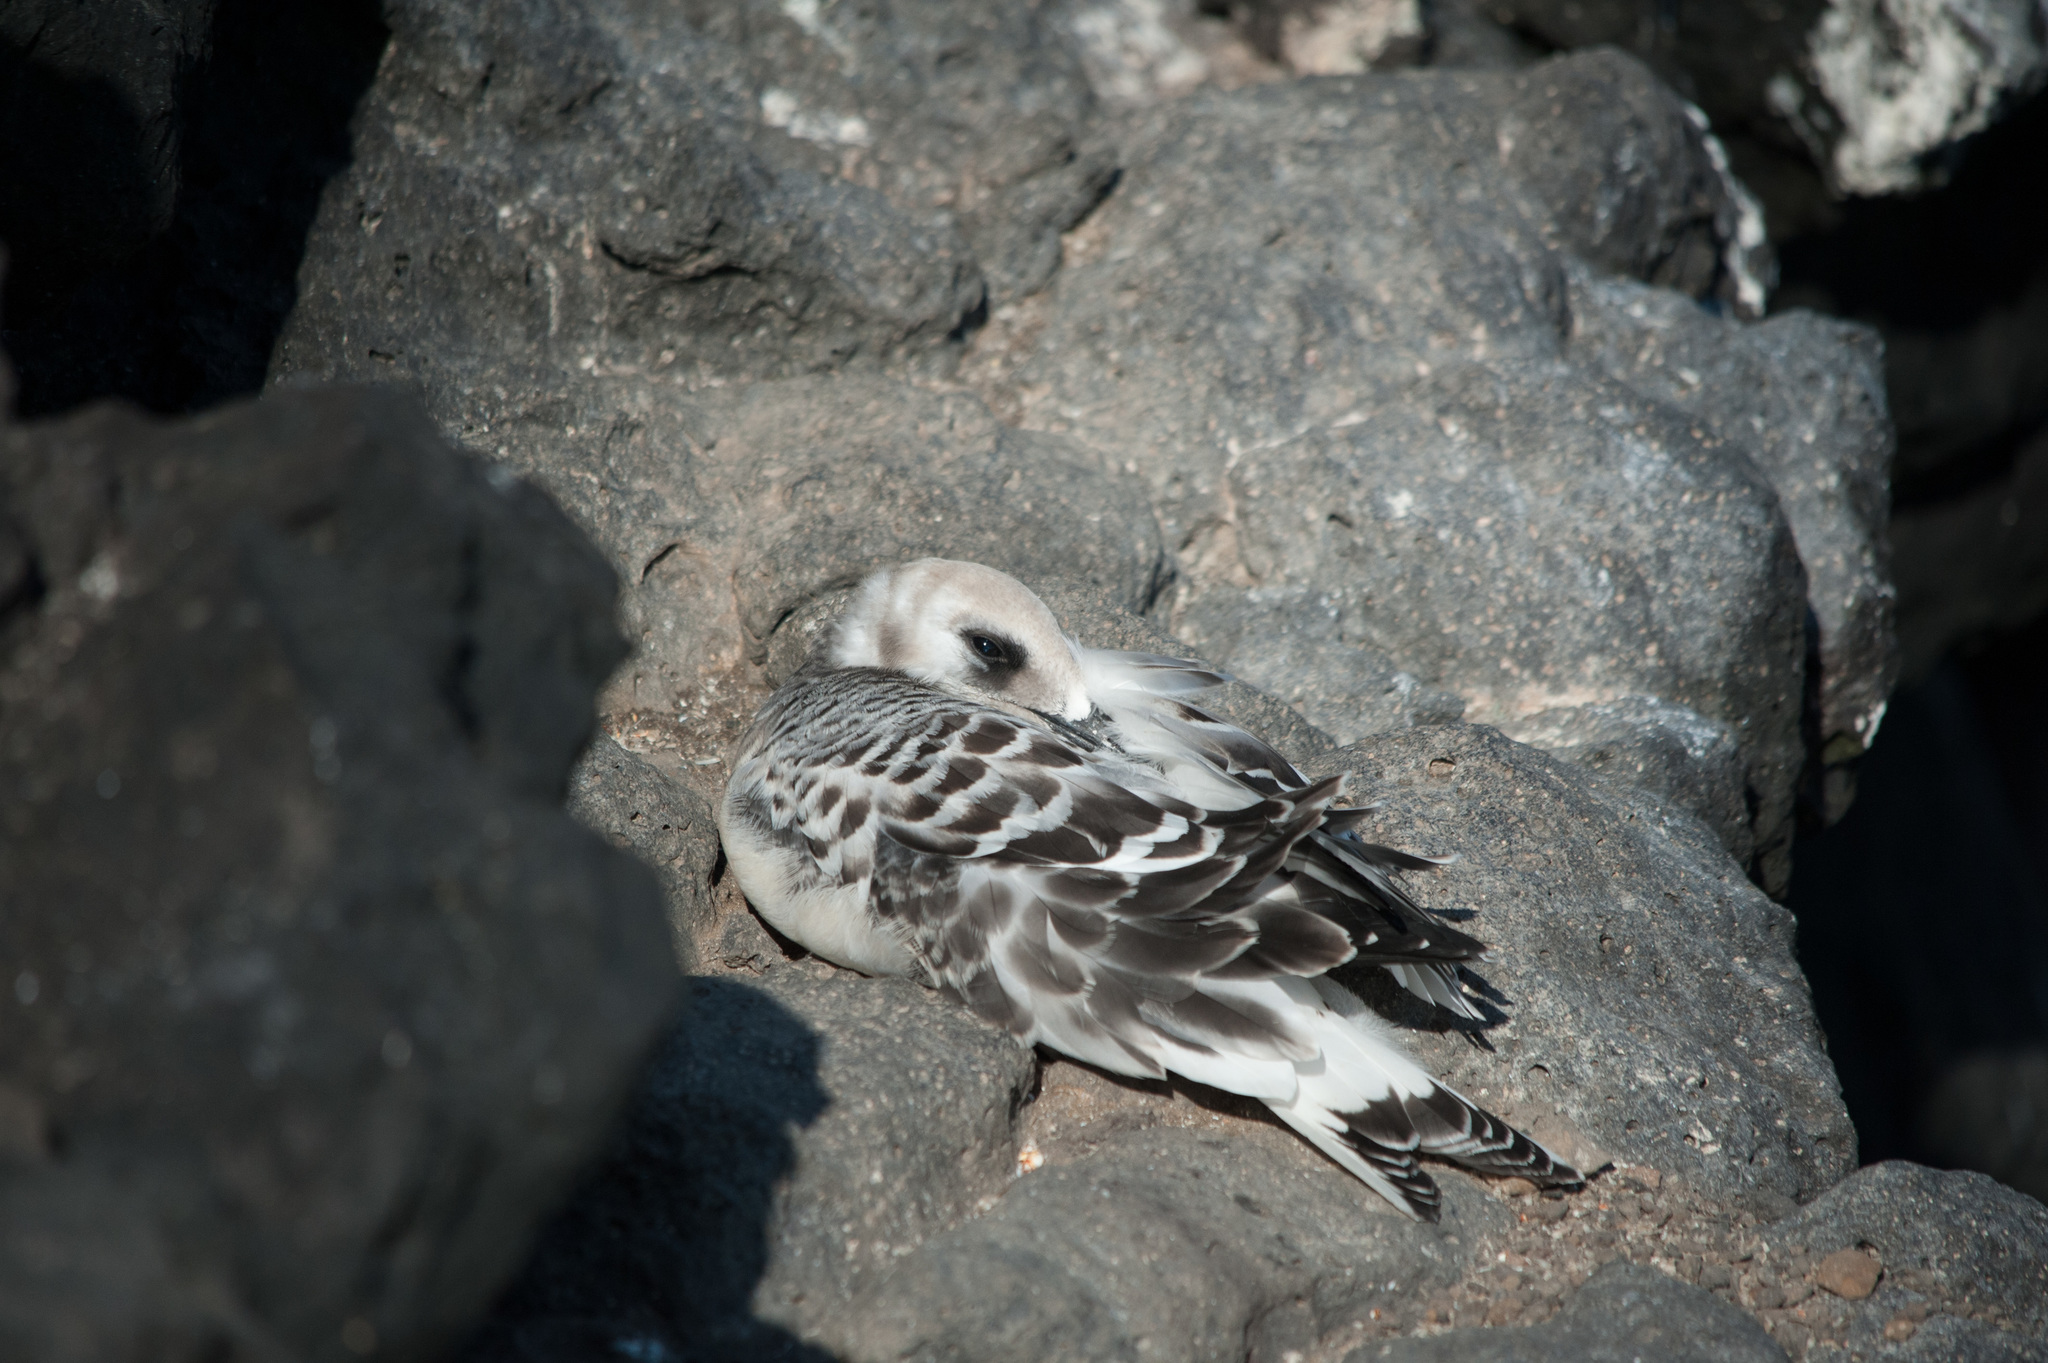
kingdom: Animalia
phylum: Chordata
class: Aves
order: Charadriiformes
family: Laridae
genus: Creagrus
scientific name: Creagrus furcatus
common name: Swallow-tailed gull
